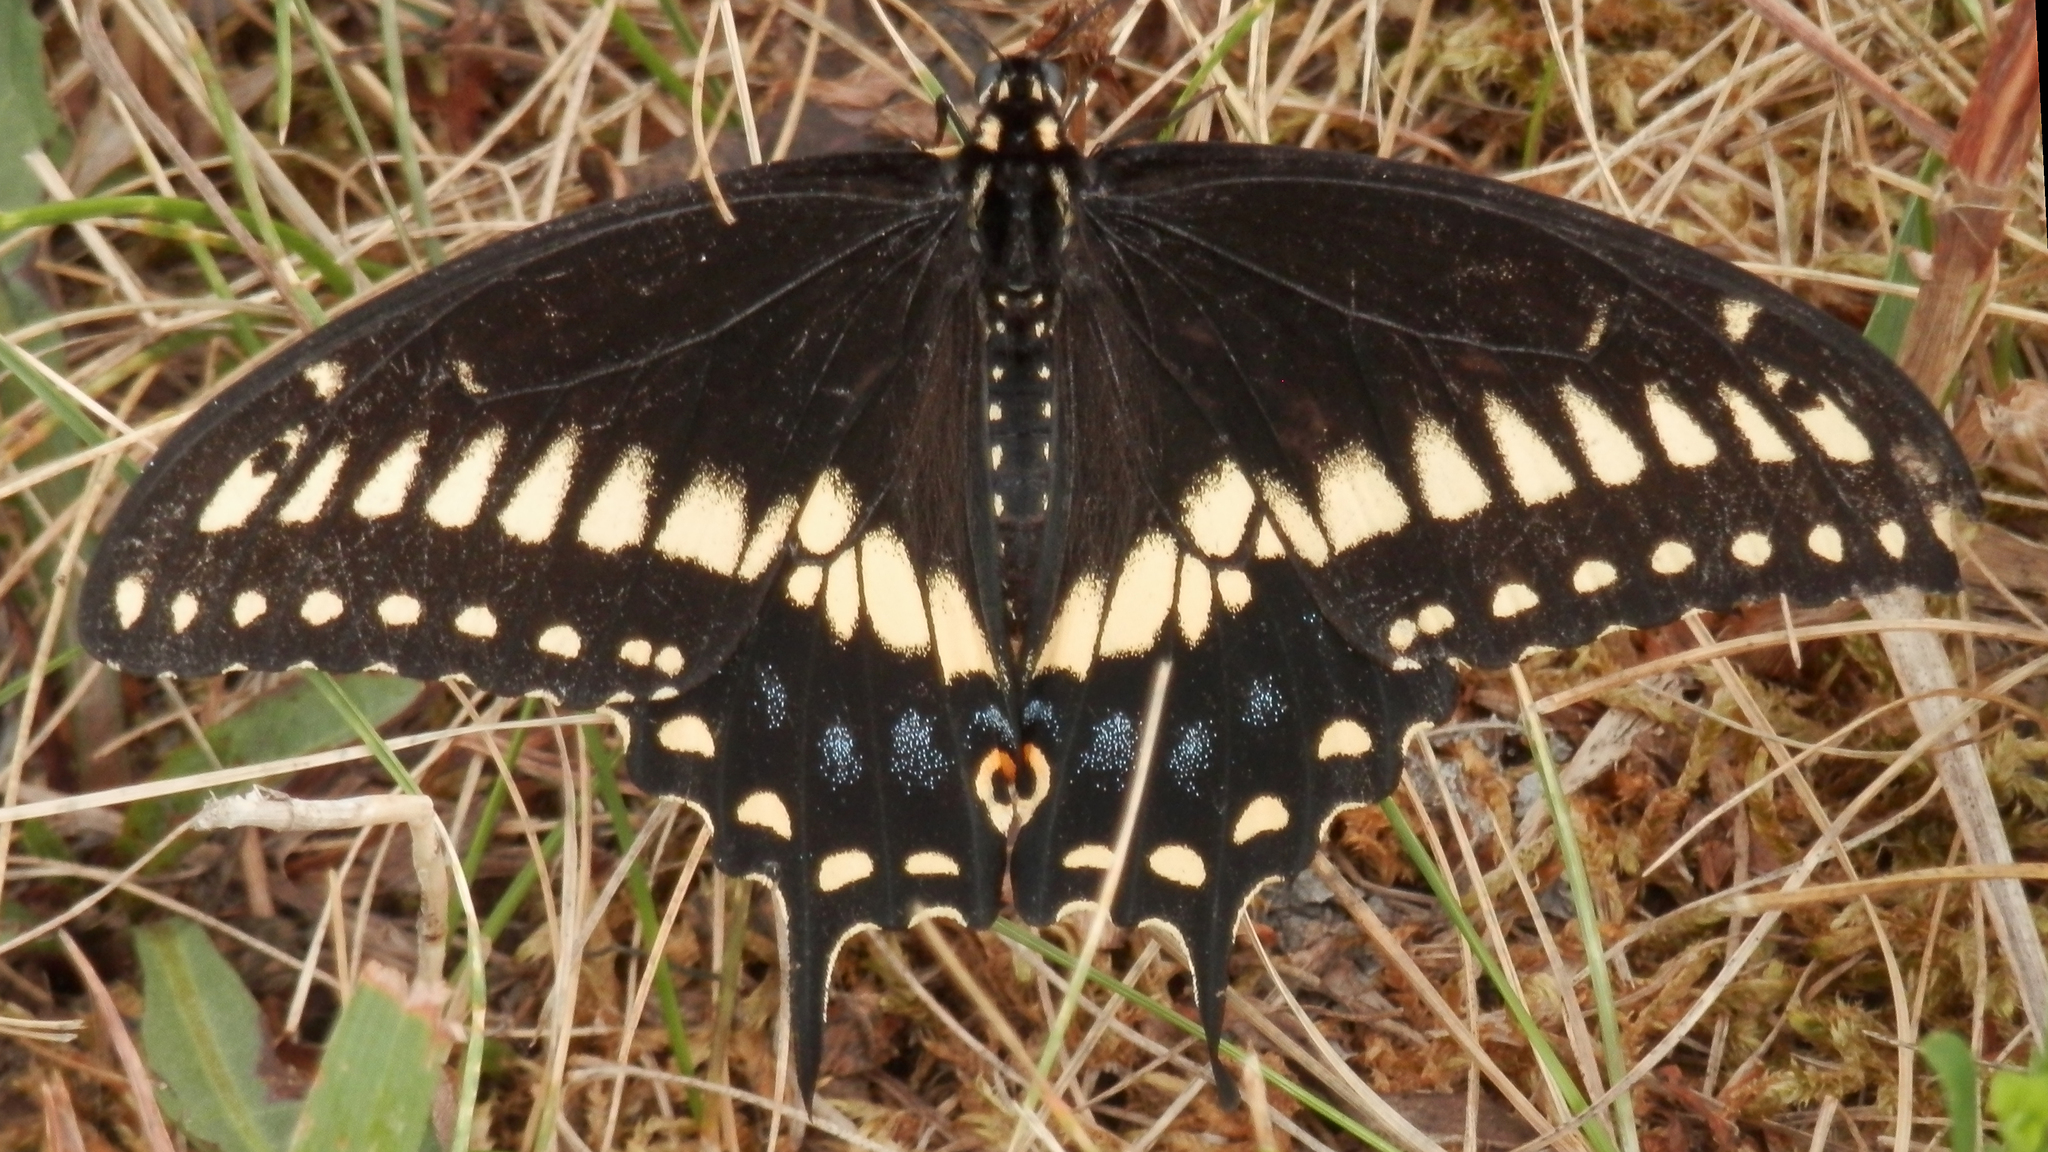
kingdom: Animalia
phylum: Arthropoda
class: Insecta
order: Lepidoptera
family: Papilionidae
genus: Papilio
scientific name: Papilio polyxenes
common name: Black swallowtail
